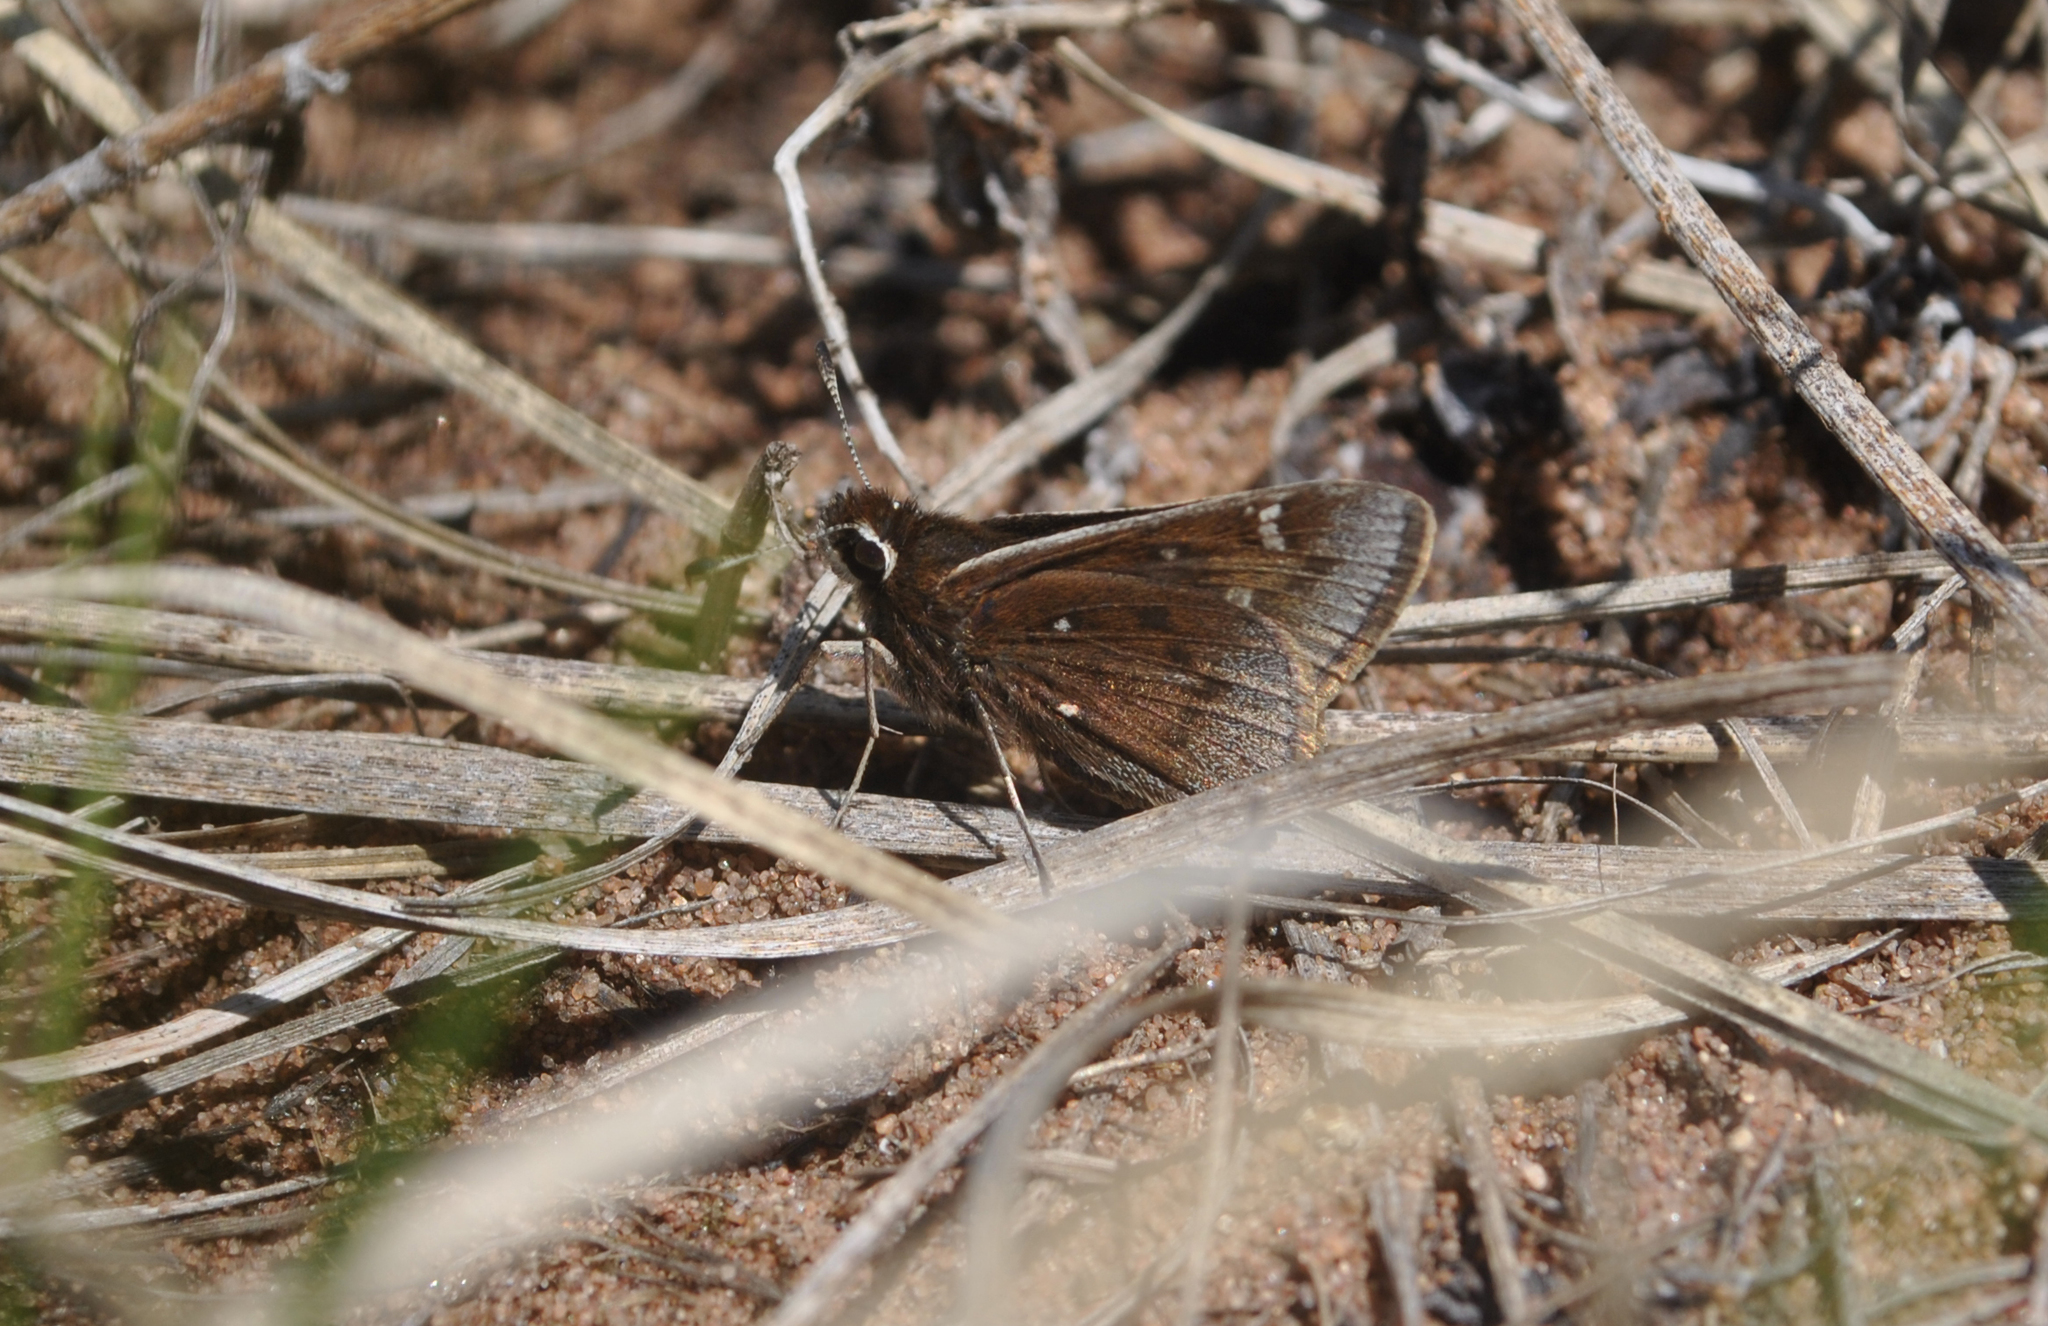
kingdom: Animalia
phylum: Arthropoda
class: Insecta
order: Lepidoptera
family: Hesperiidae
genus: Atrytonopsis
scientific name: Atrytonopsis hianna
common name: Dusted skipper
